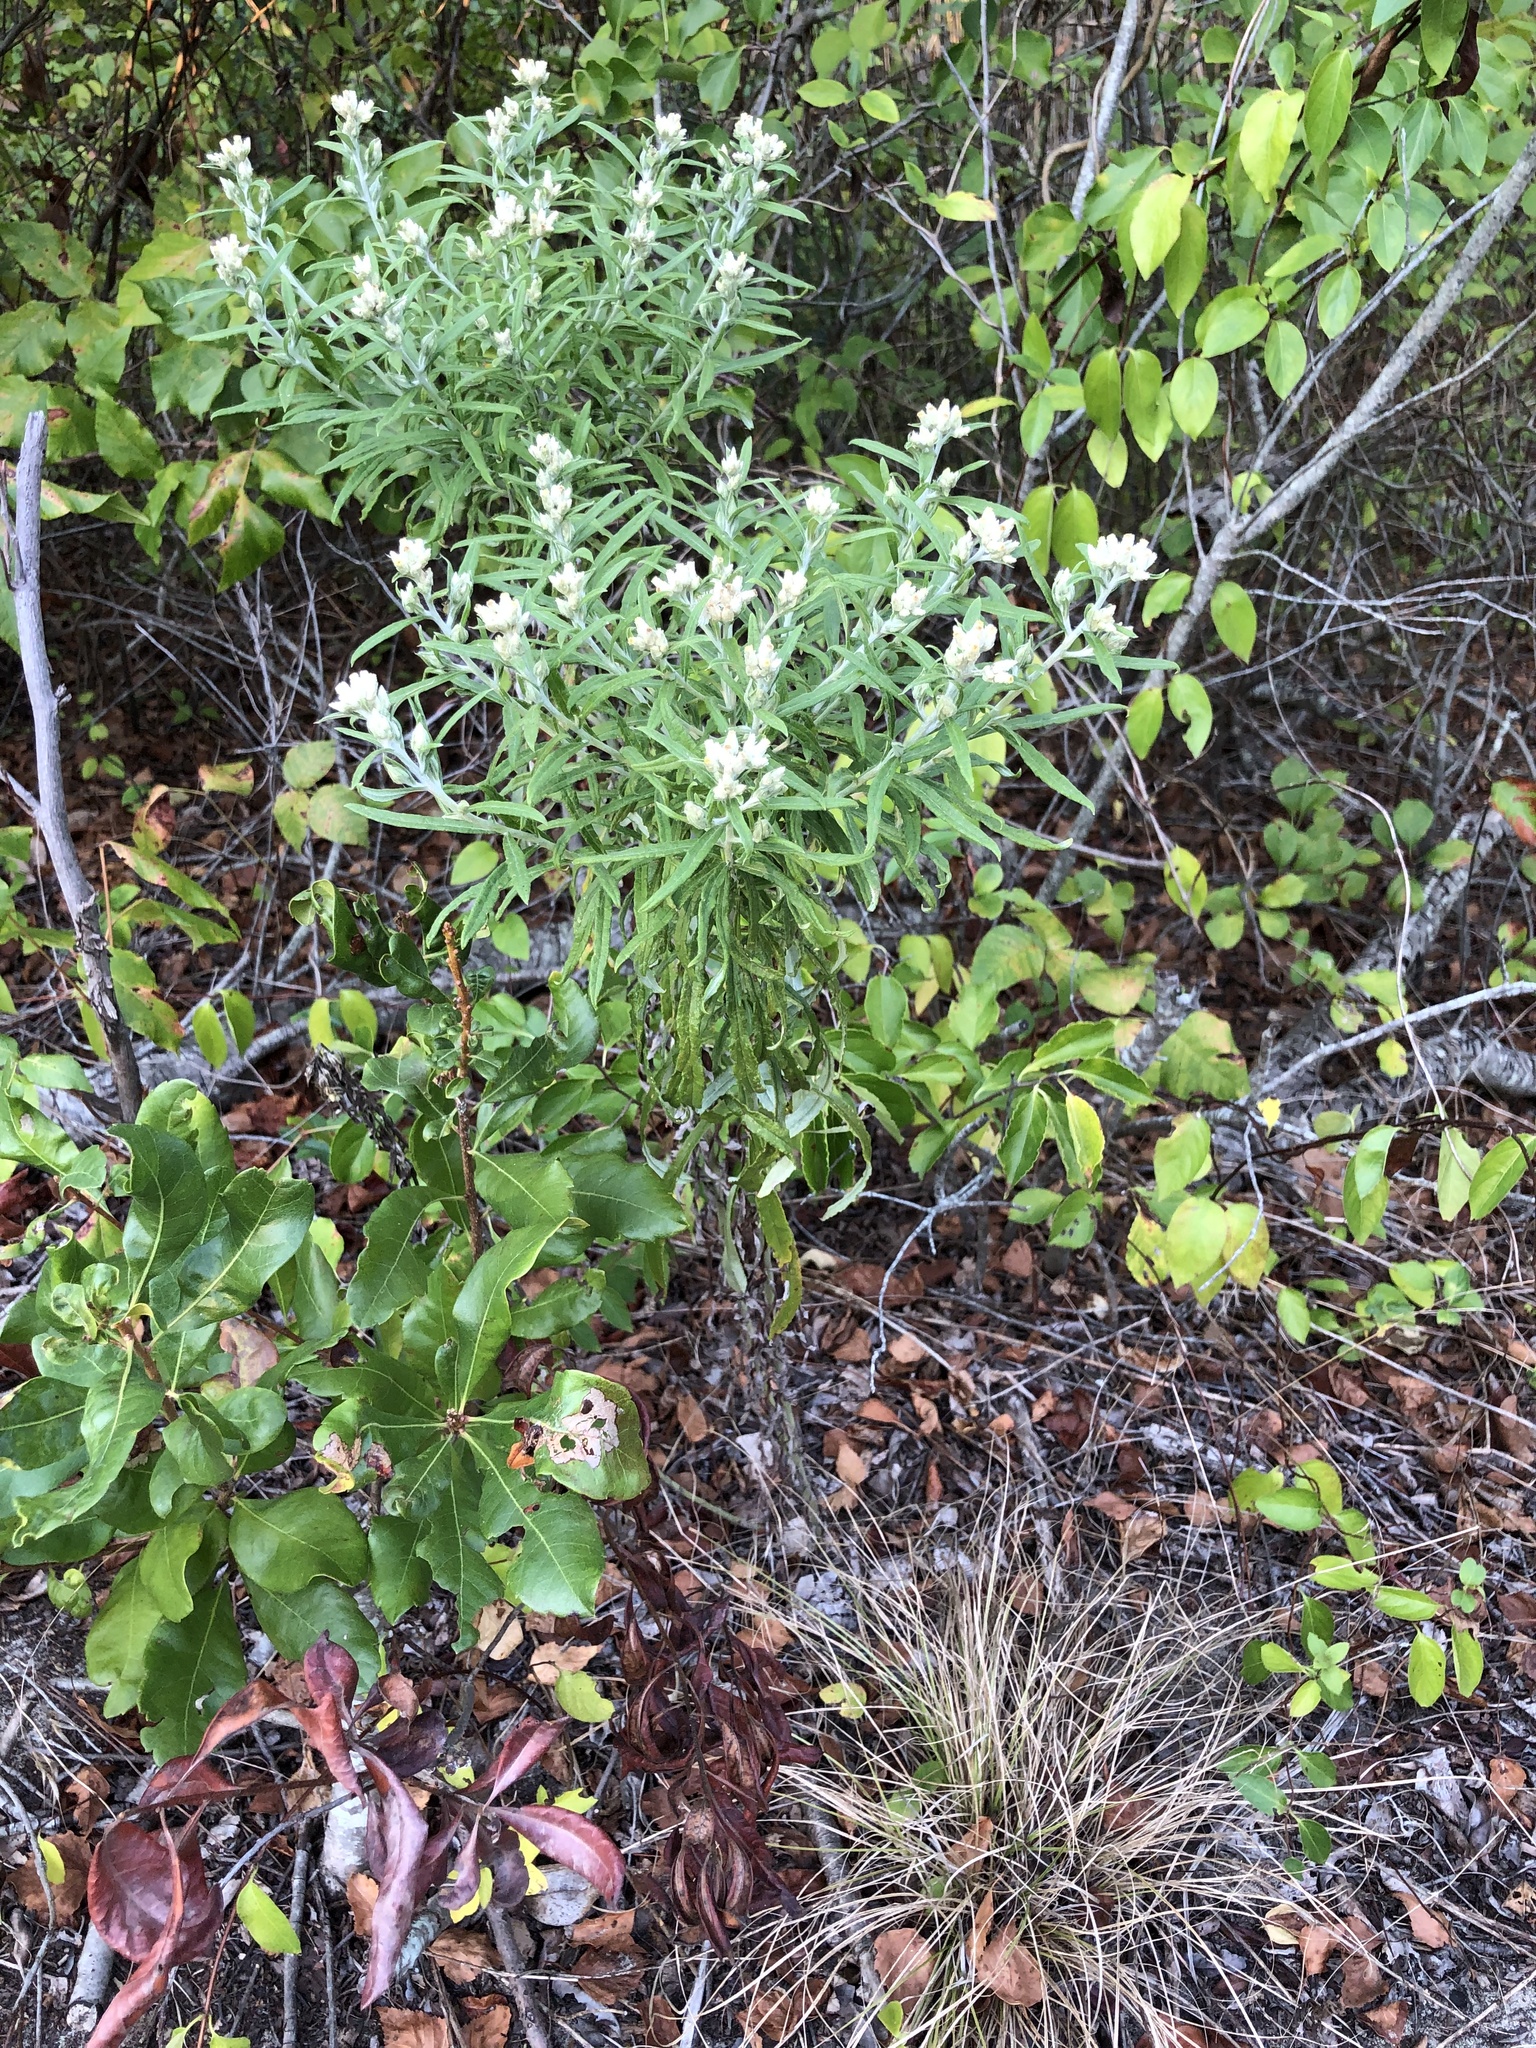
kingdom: Plantae
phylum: Tracheophyta
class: Magnoliopsida
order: Asterales
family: Asteraceae
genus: Pseudognaphalium
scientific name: Pseudognaphalium obtusifolium
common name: Eastern rabbit-tobacco
